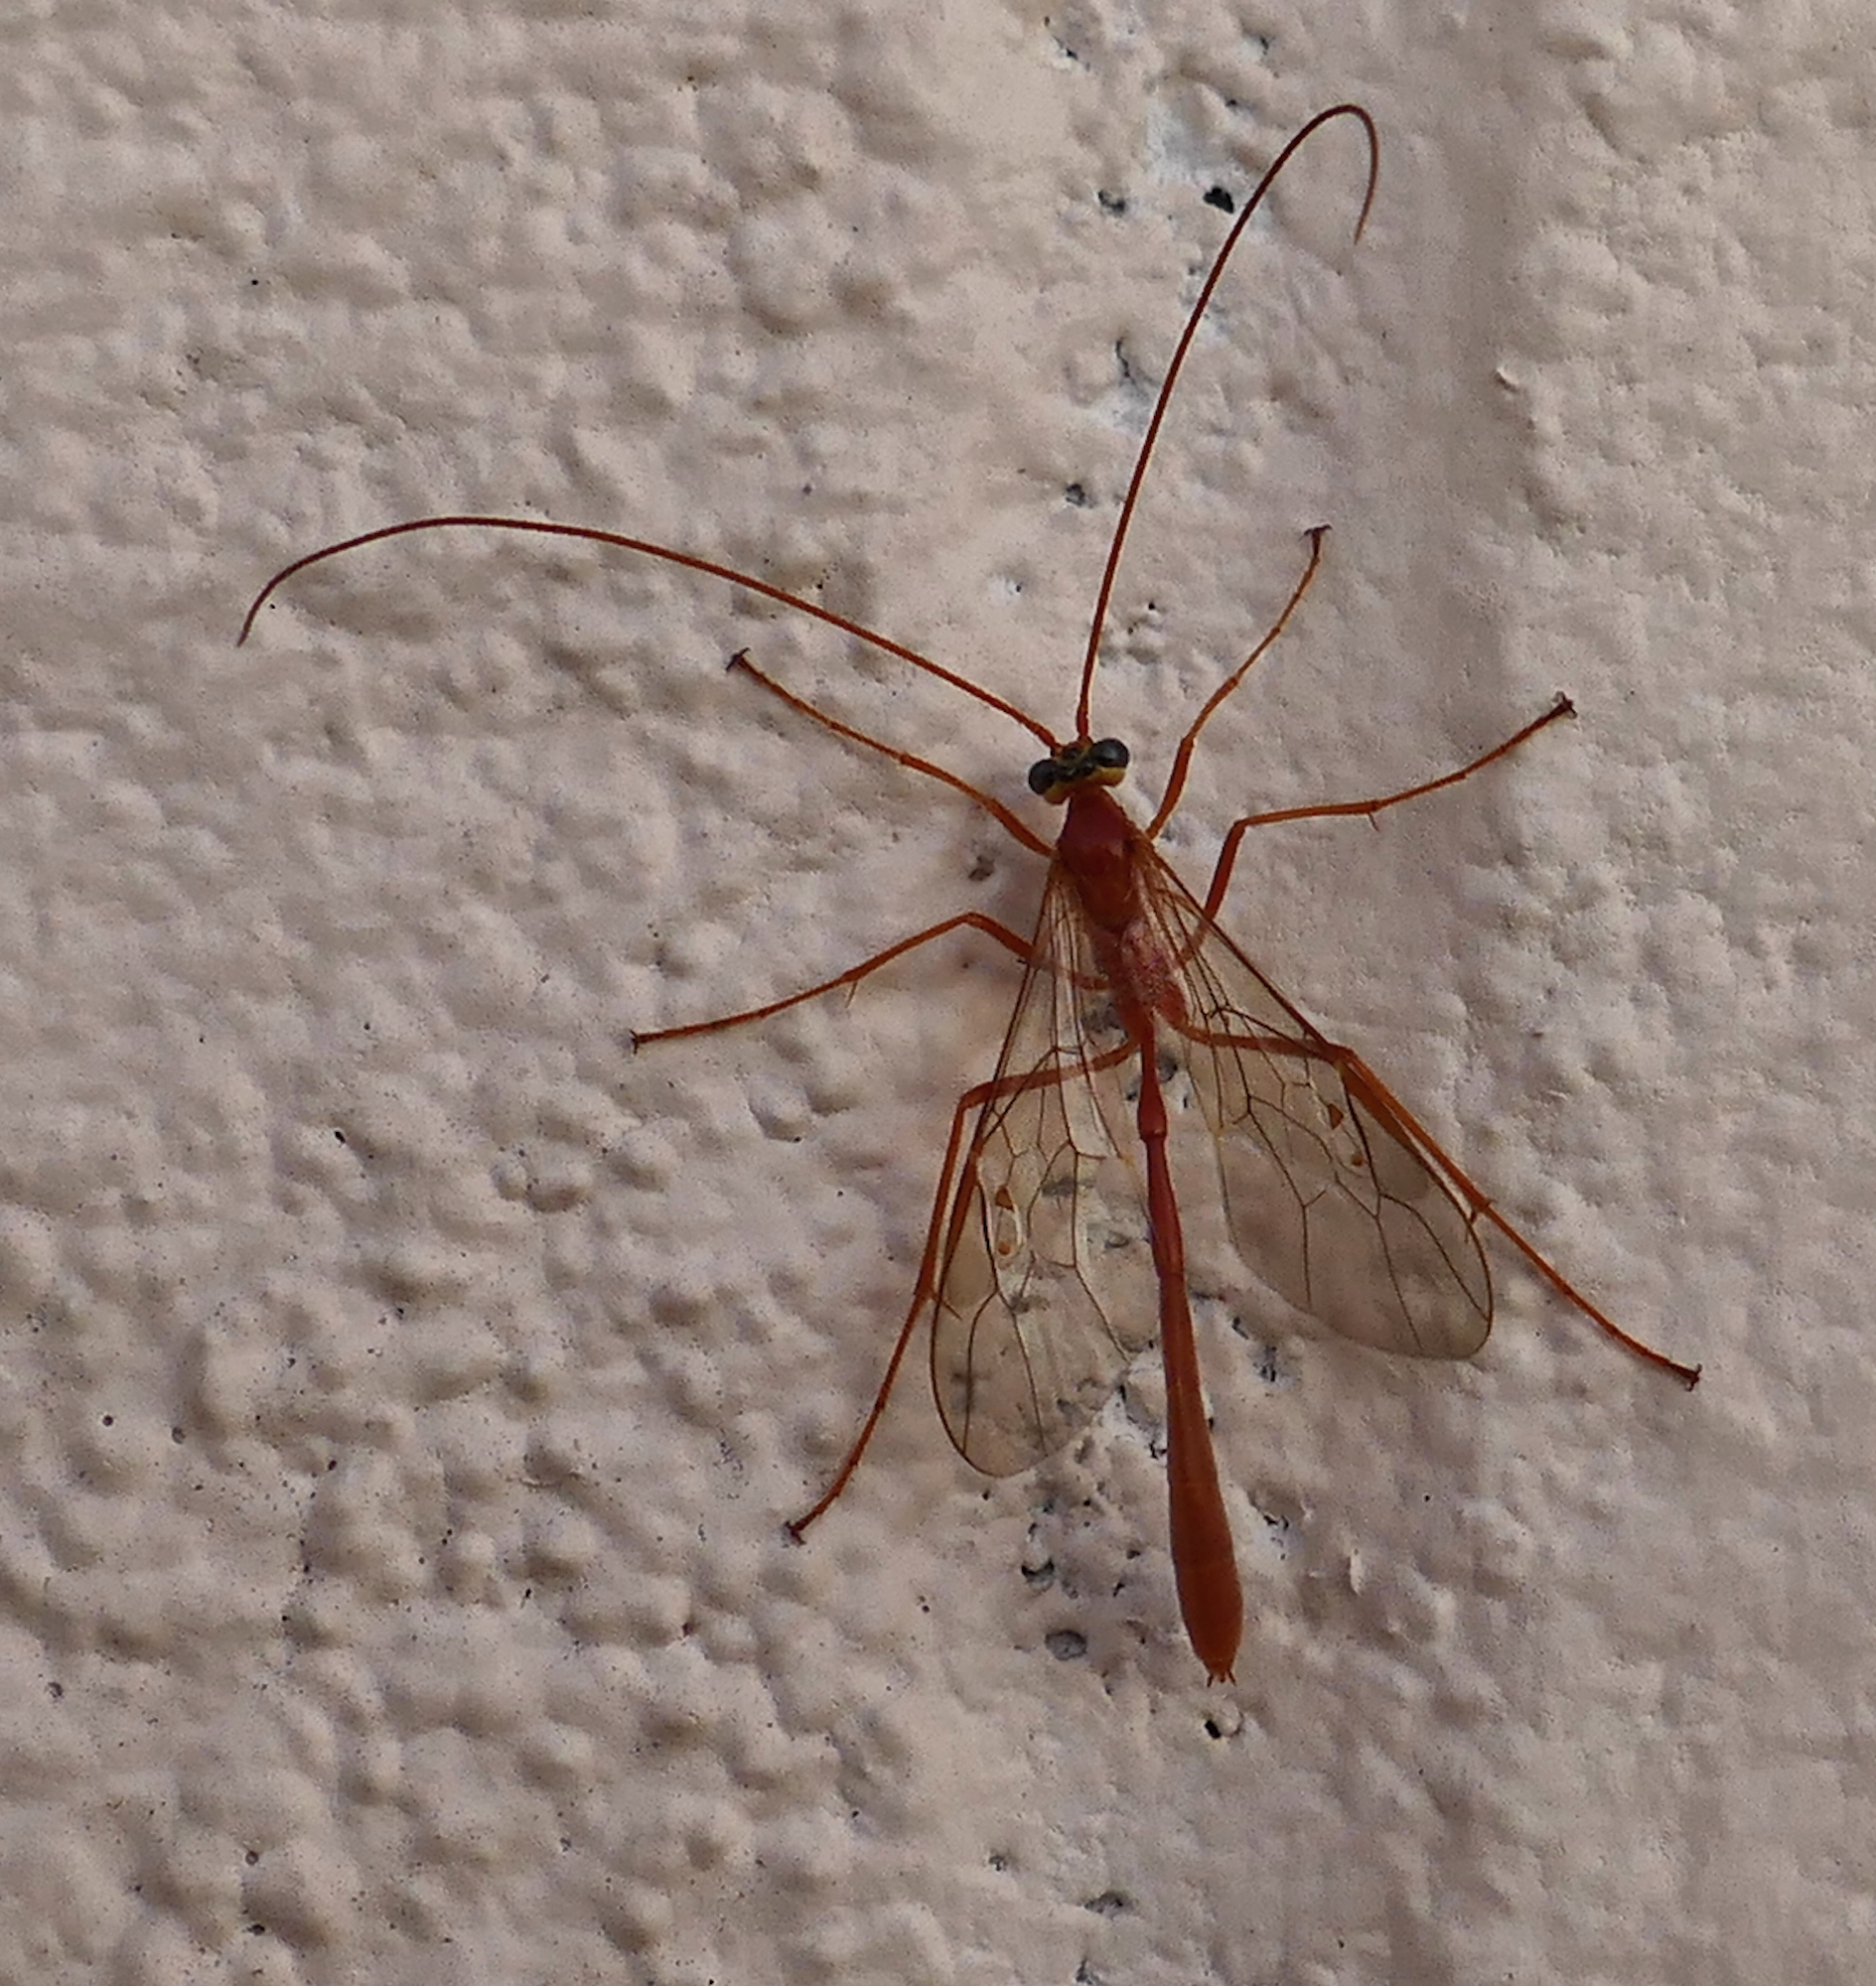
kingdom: Animalia
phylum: Arthropoda
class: Insecta
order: Hymenoptera
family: Ichneumonidae
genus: Enicospilus
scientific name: Enicospilus purgatus
